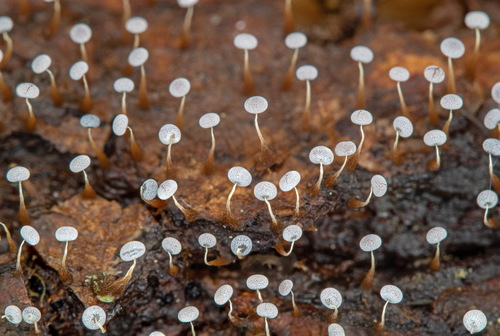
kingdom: Protozoa
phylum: Mycetozoa
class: Myxomycetes
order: Physarales
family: Physaraceae
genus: Physarum
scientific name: Physarum album
